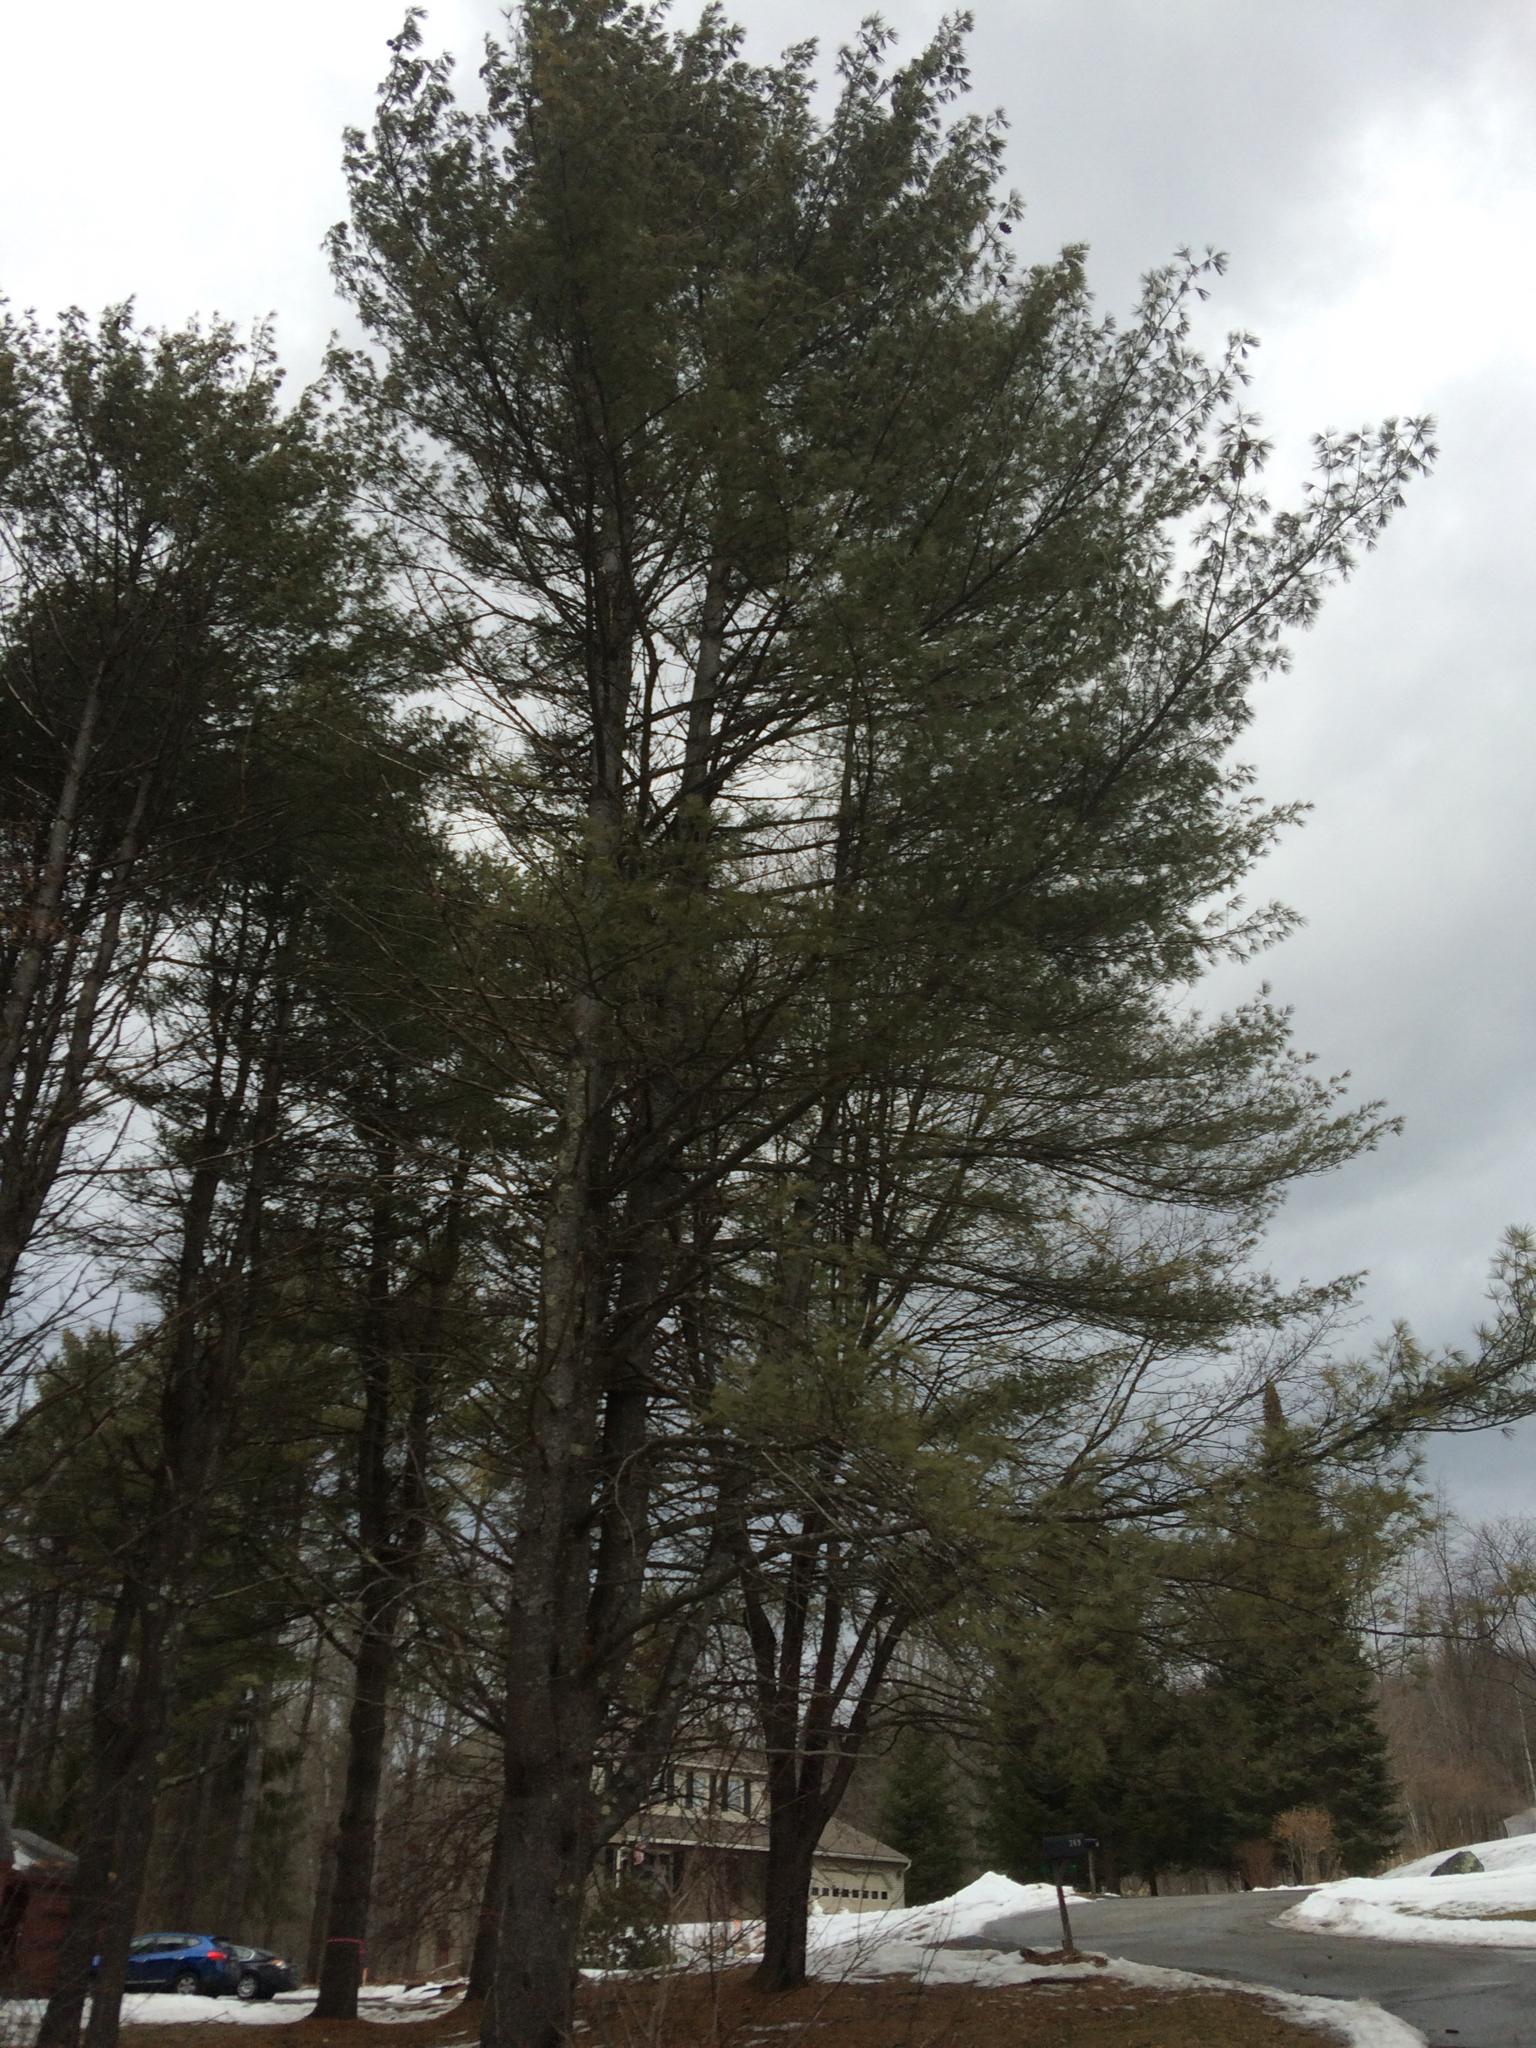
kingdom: Plantae
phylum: Tracheophyta
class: Pinopsida
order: Pinales
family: Pinaceae
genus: Pinus
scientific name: Pinus strobus
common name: Weymouth pine
